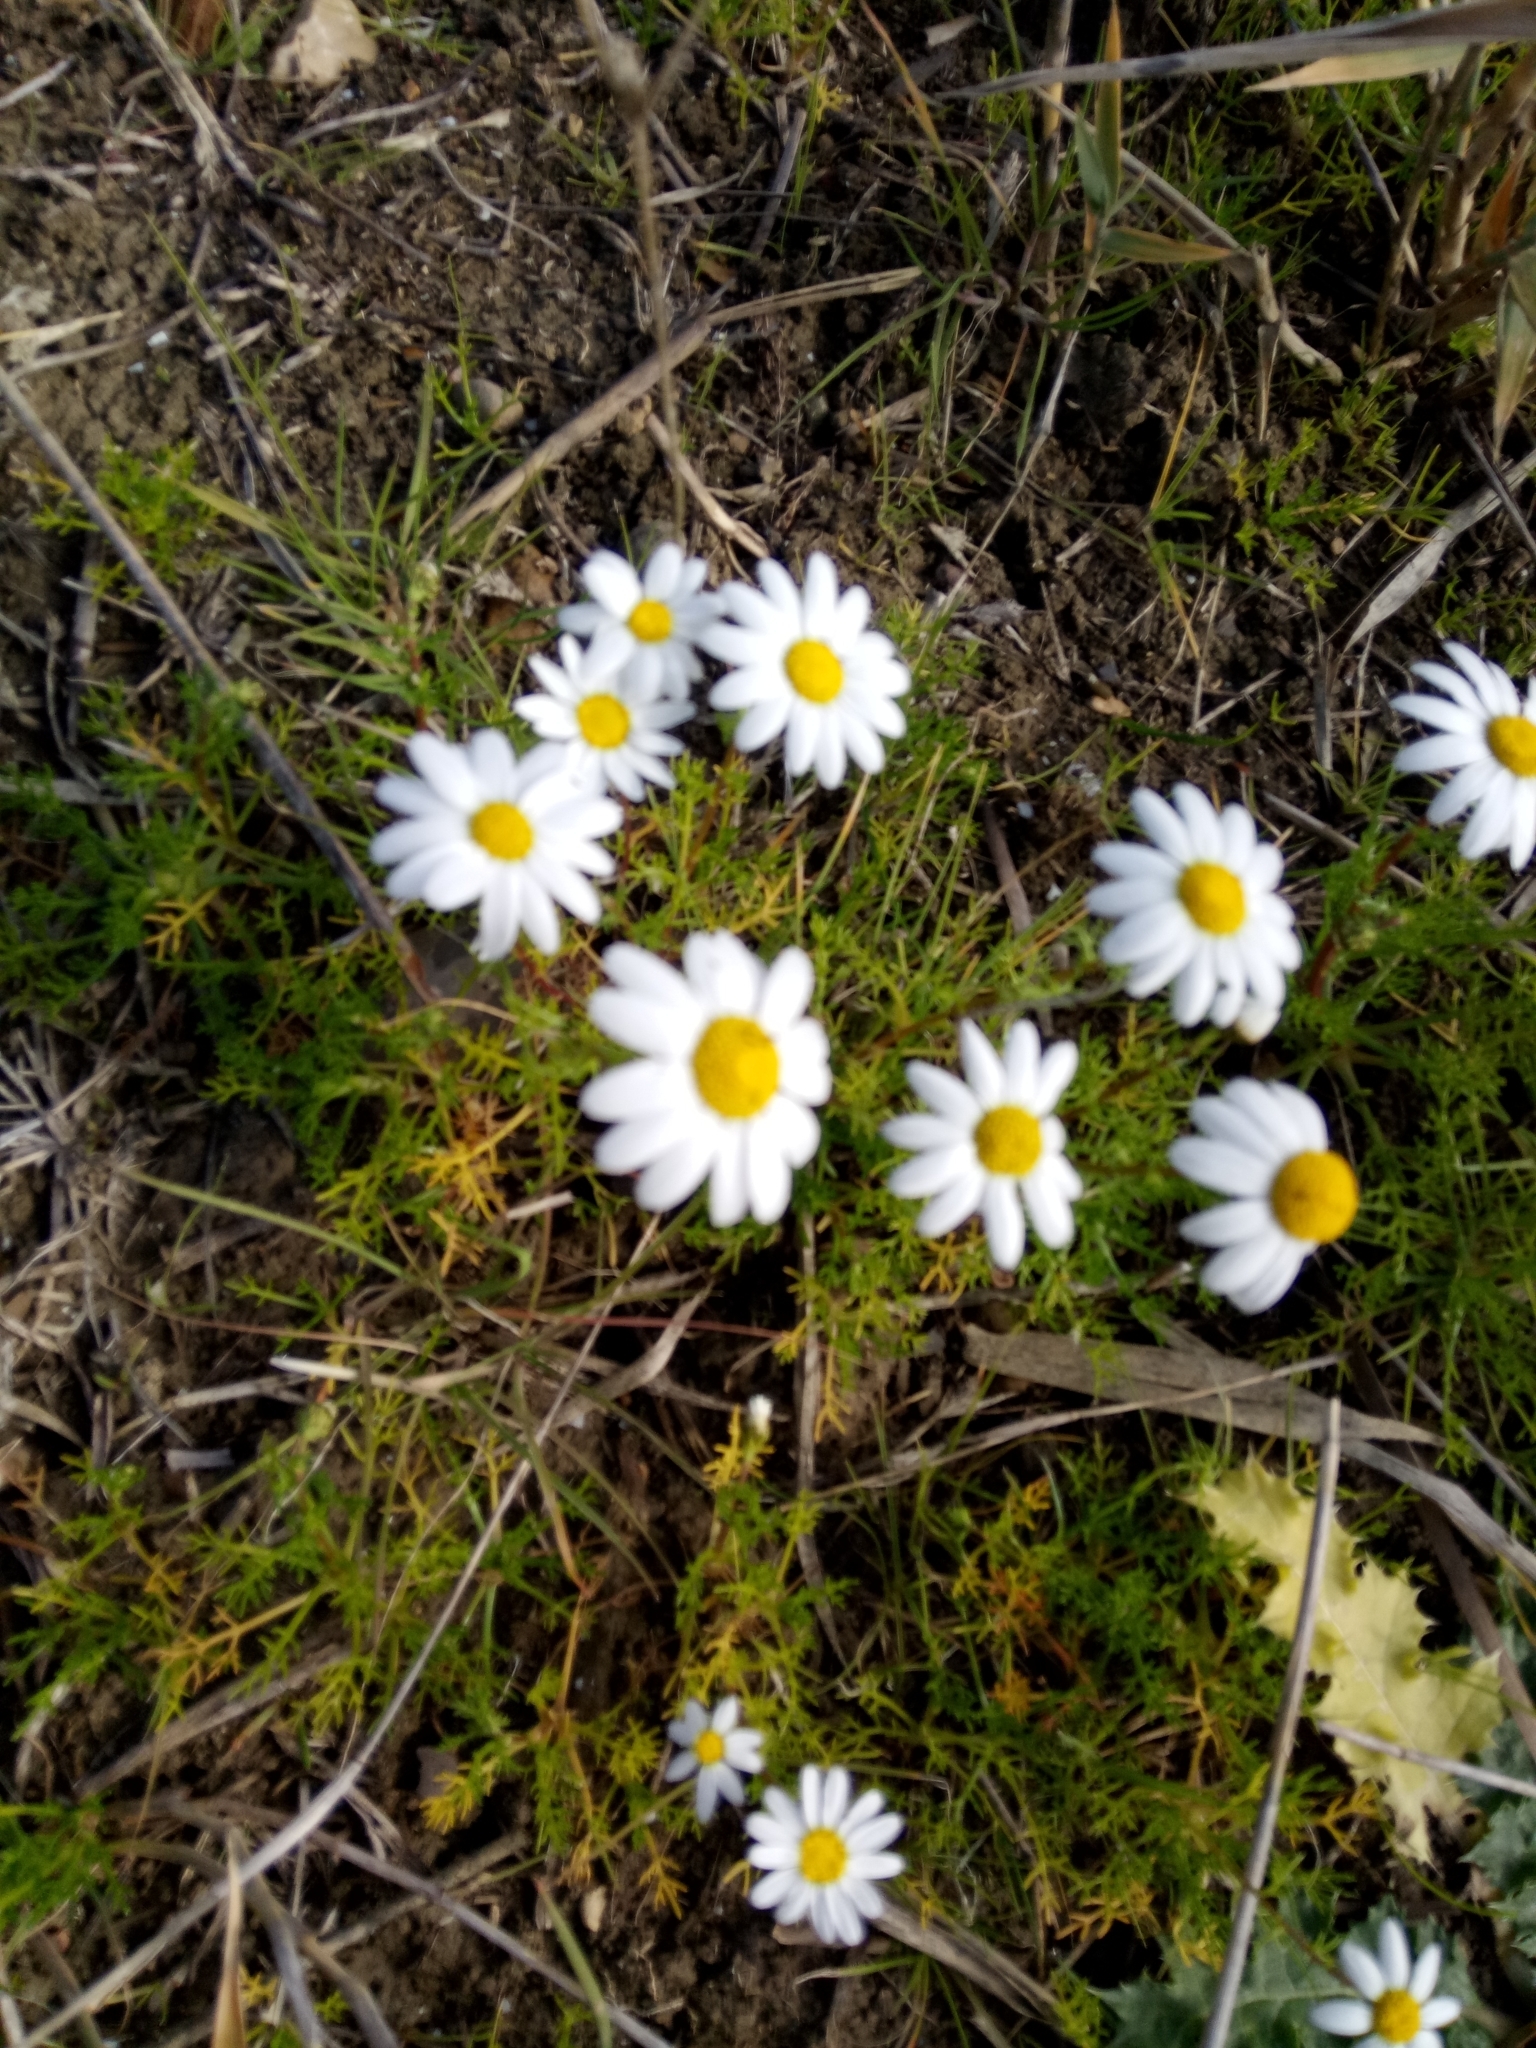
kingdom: Plantae
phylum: Tracheophyta
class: Magnoliopsida
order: Asterales
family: Asteraceae
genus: Chamaemelum
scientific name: Chamaemelum fuscatum
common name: Chamomile
